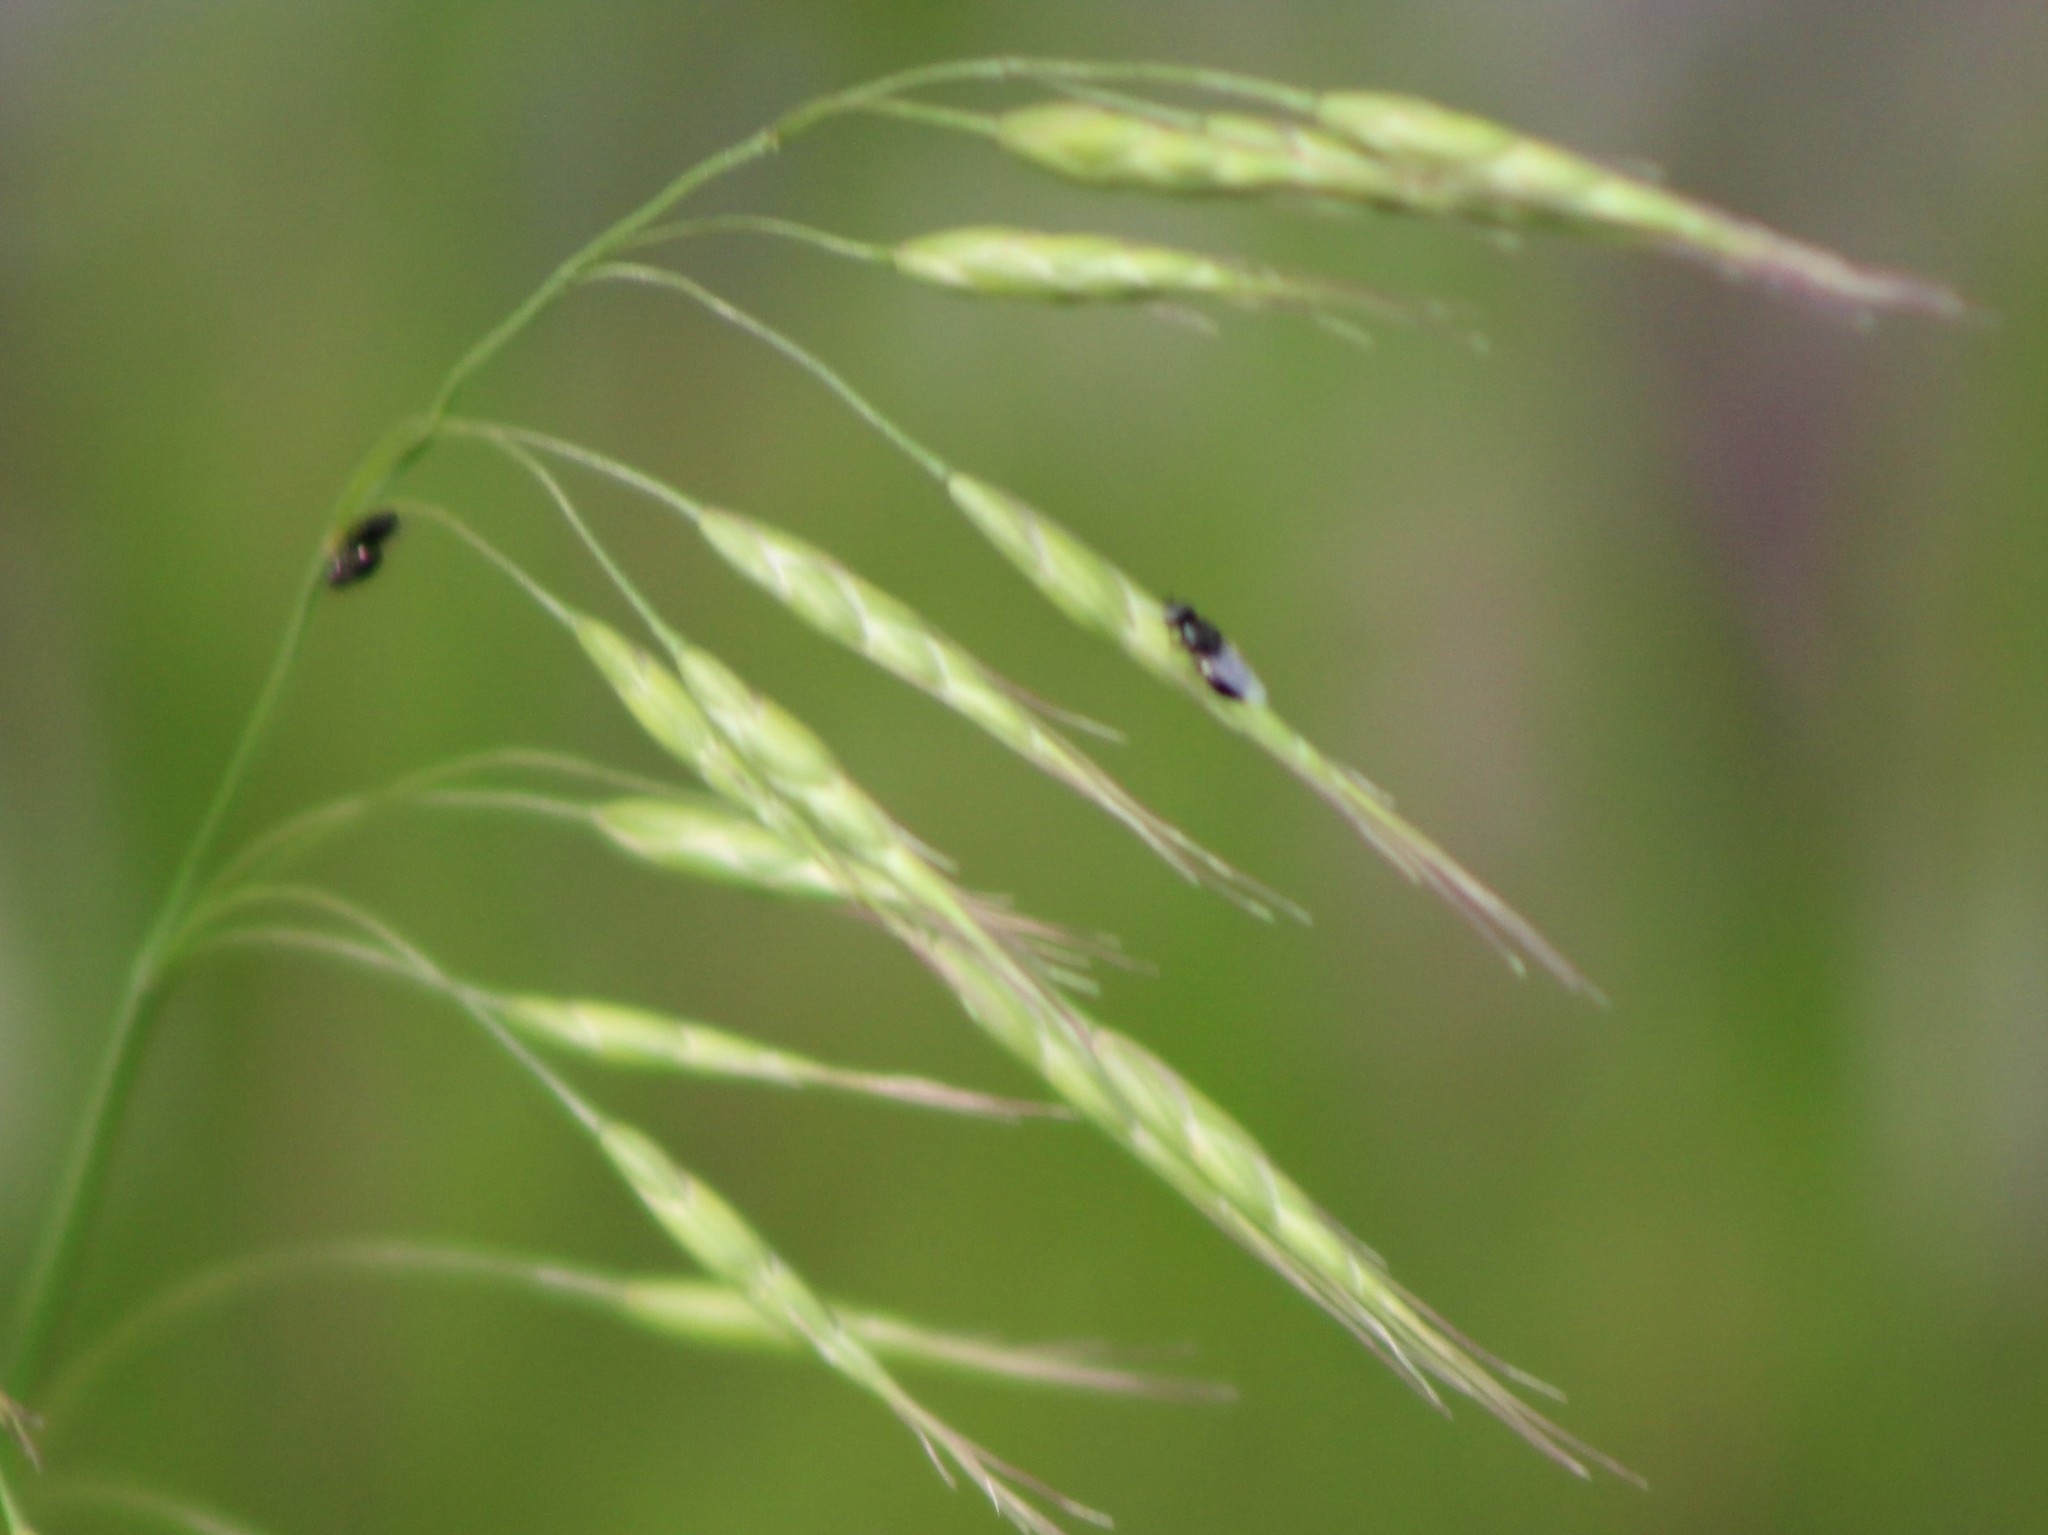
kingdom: Plantae
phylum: Tracheophyta
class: Liliopsida
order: Poales
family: Poaceae
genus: Bromus
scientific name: Bromus japonicus
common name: Japanese brome
